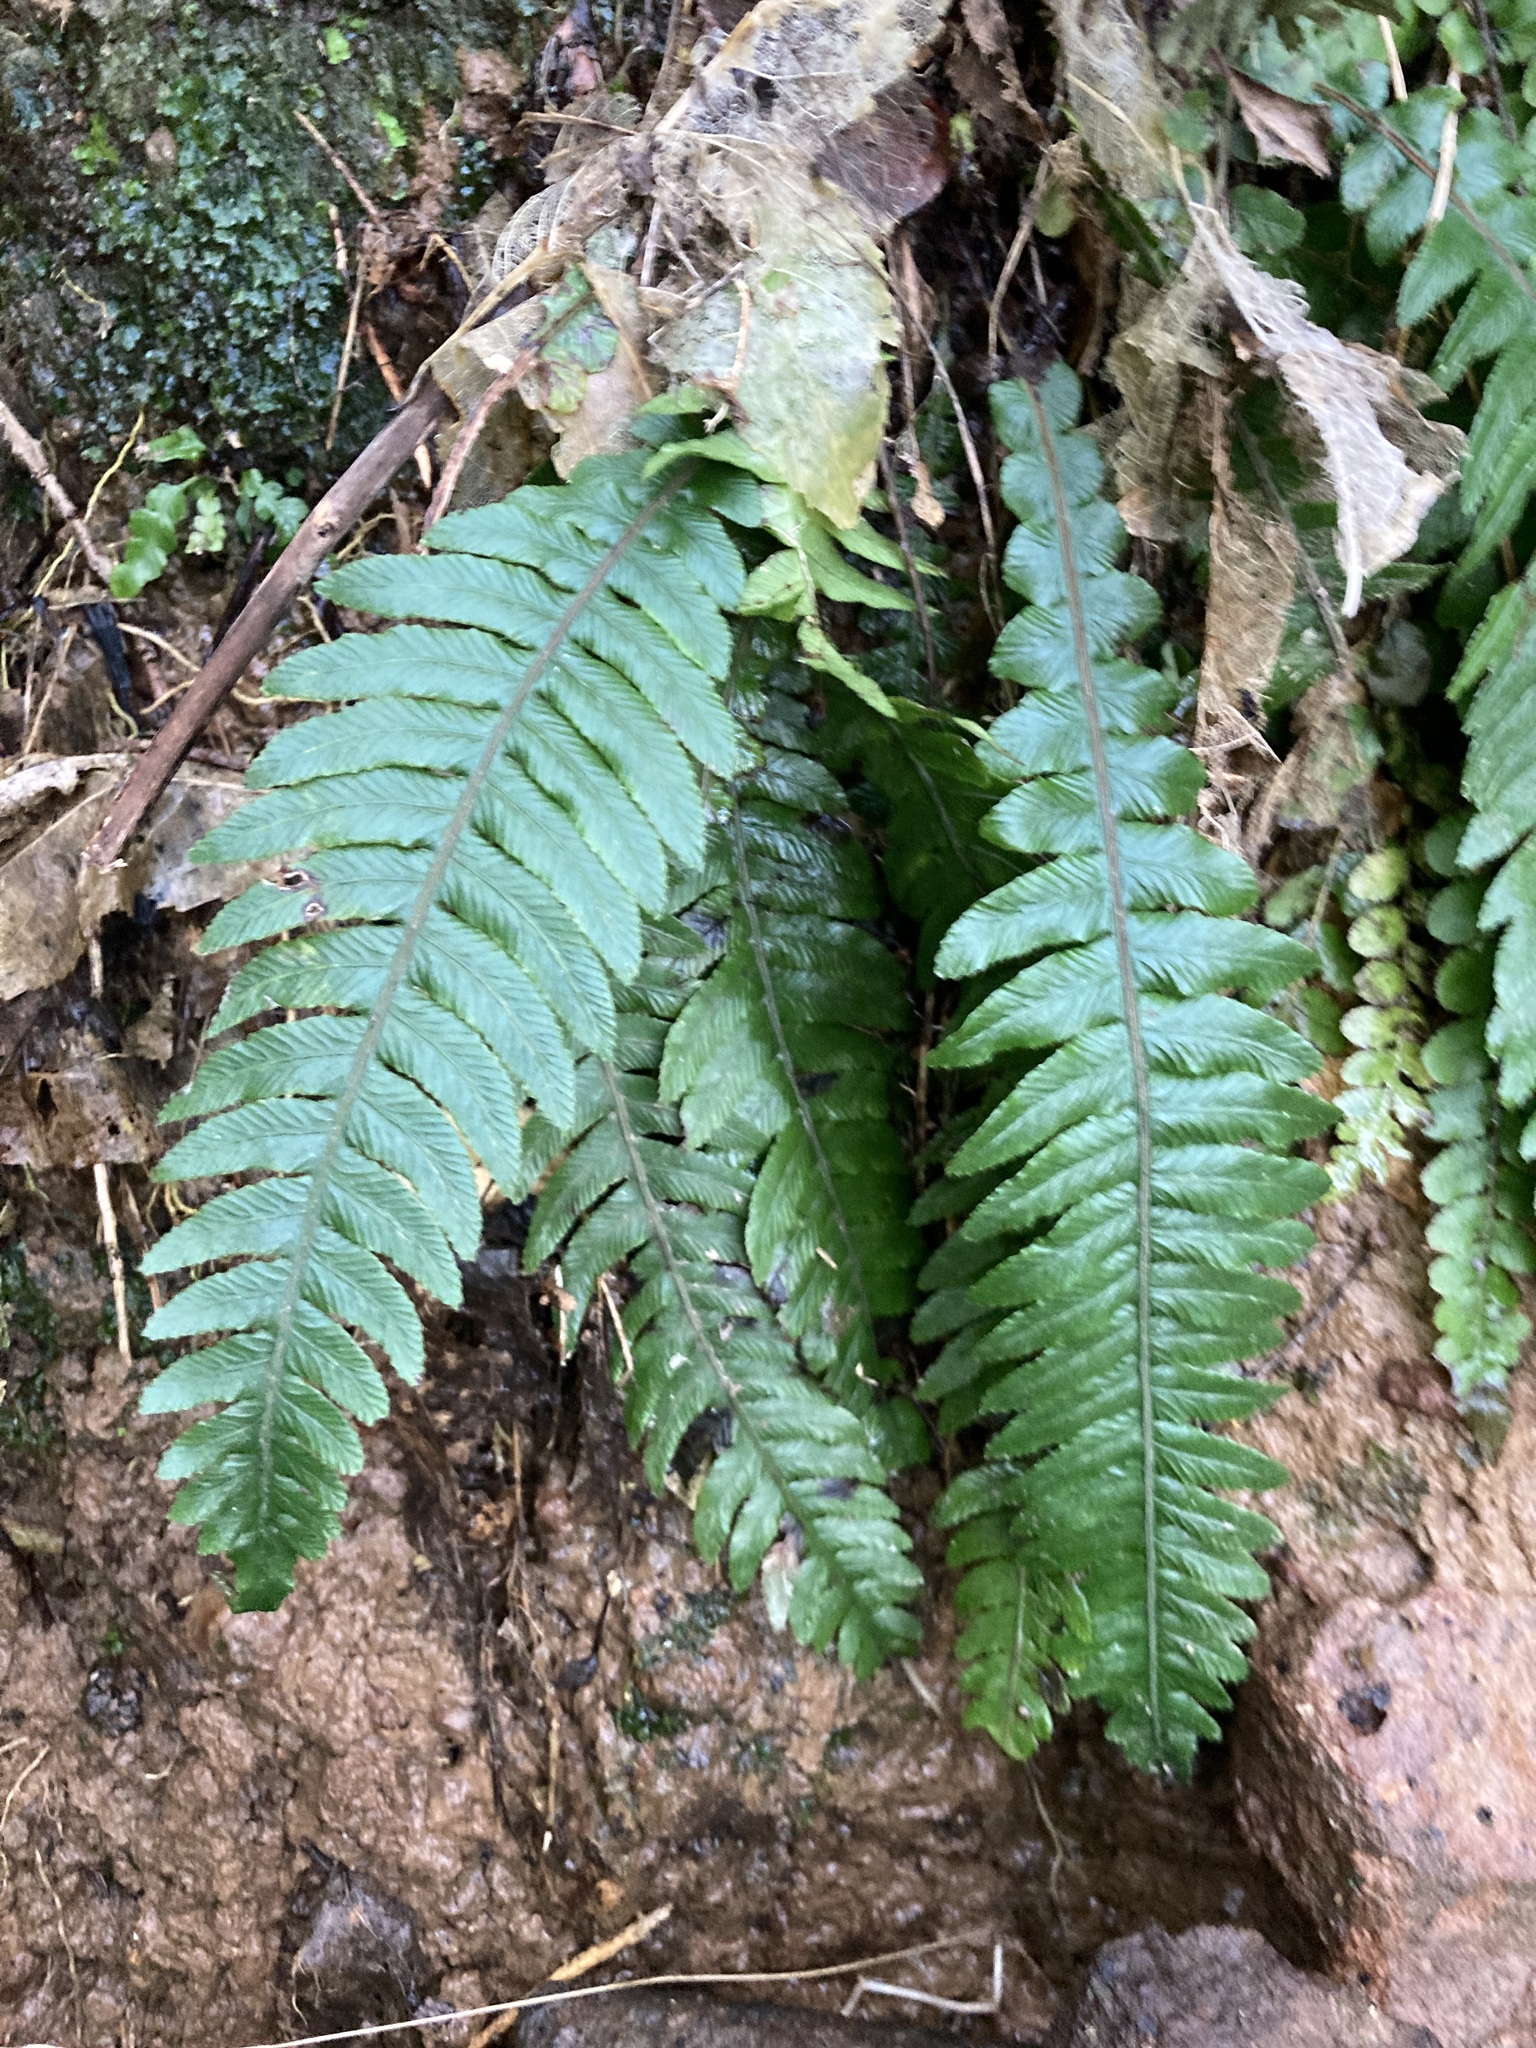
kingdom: Plantae
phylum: Tracheophyta
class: Polypodiopsida
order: Polypodiales
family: Blechnaceae
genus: Austroblechnum
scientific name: Austroblechnum lanceolatum
